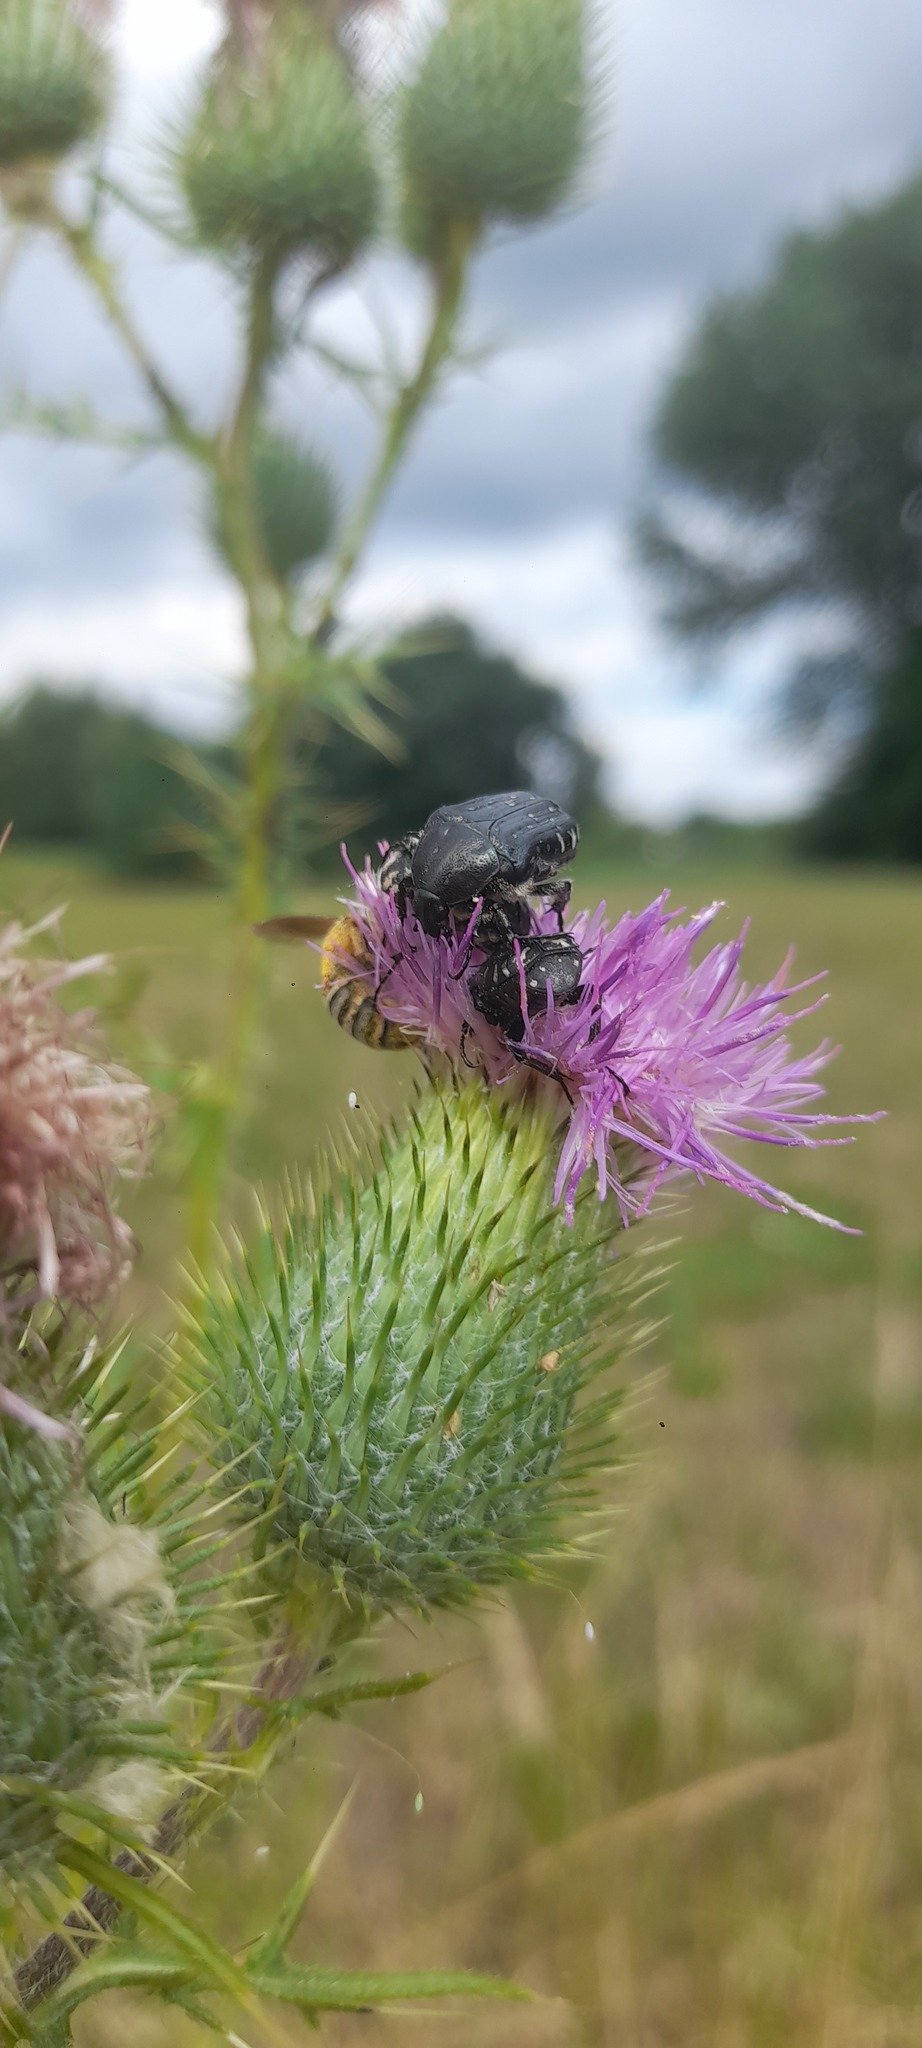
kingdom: Animalia
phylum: Arthropoda
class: Insecta
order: Coleoptera
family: Scarabaeidae
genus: Oxythyrea
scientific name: Oxythyrea funesta
